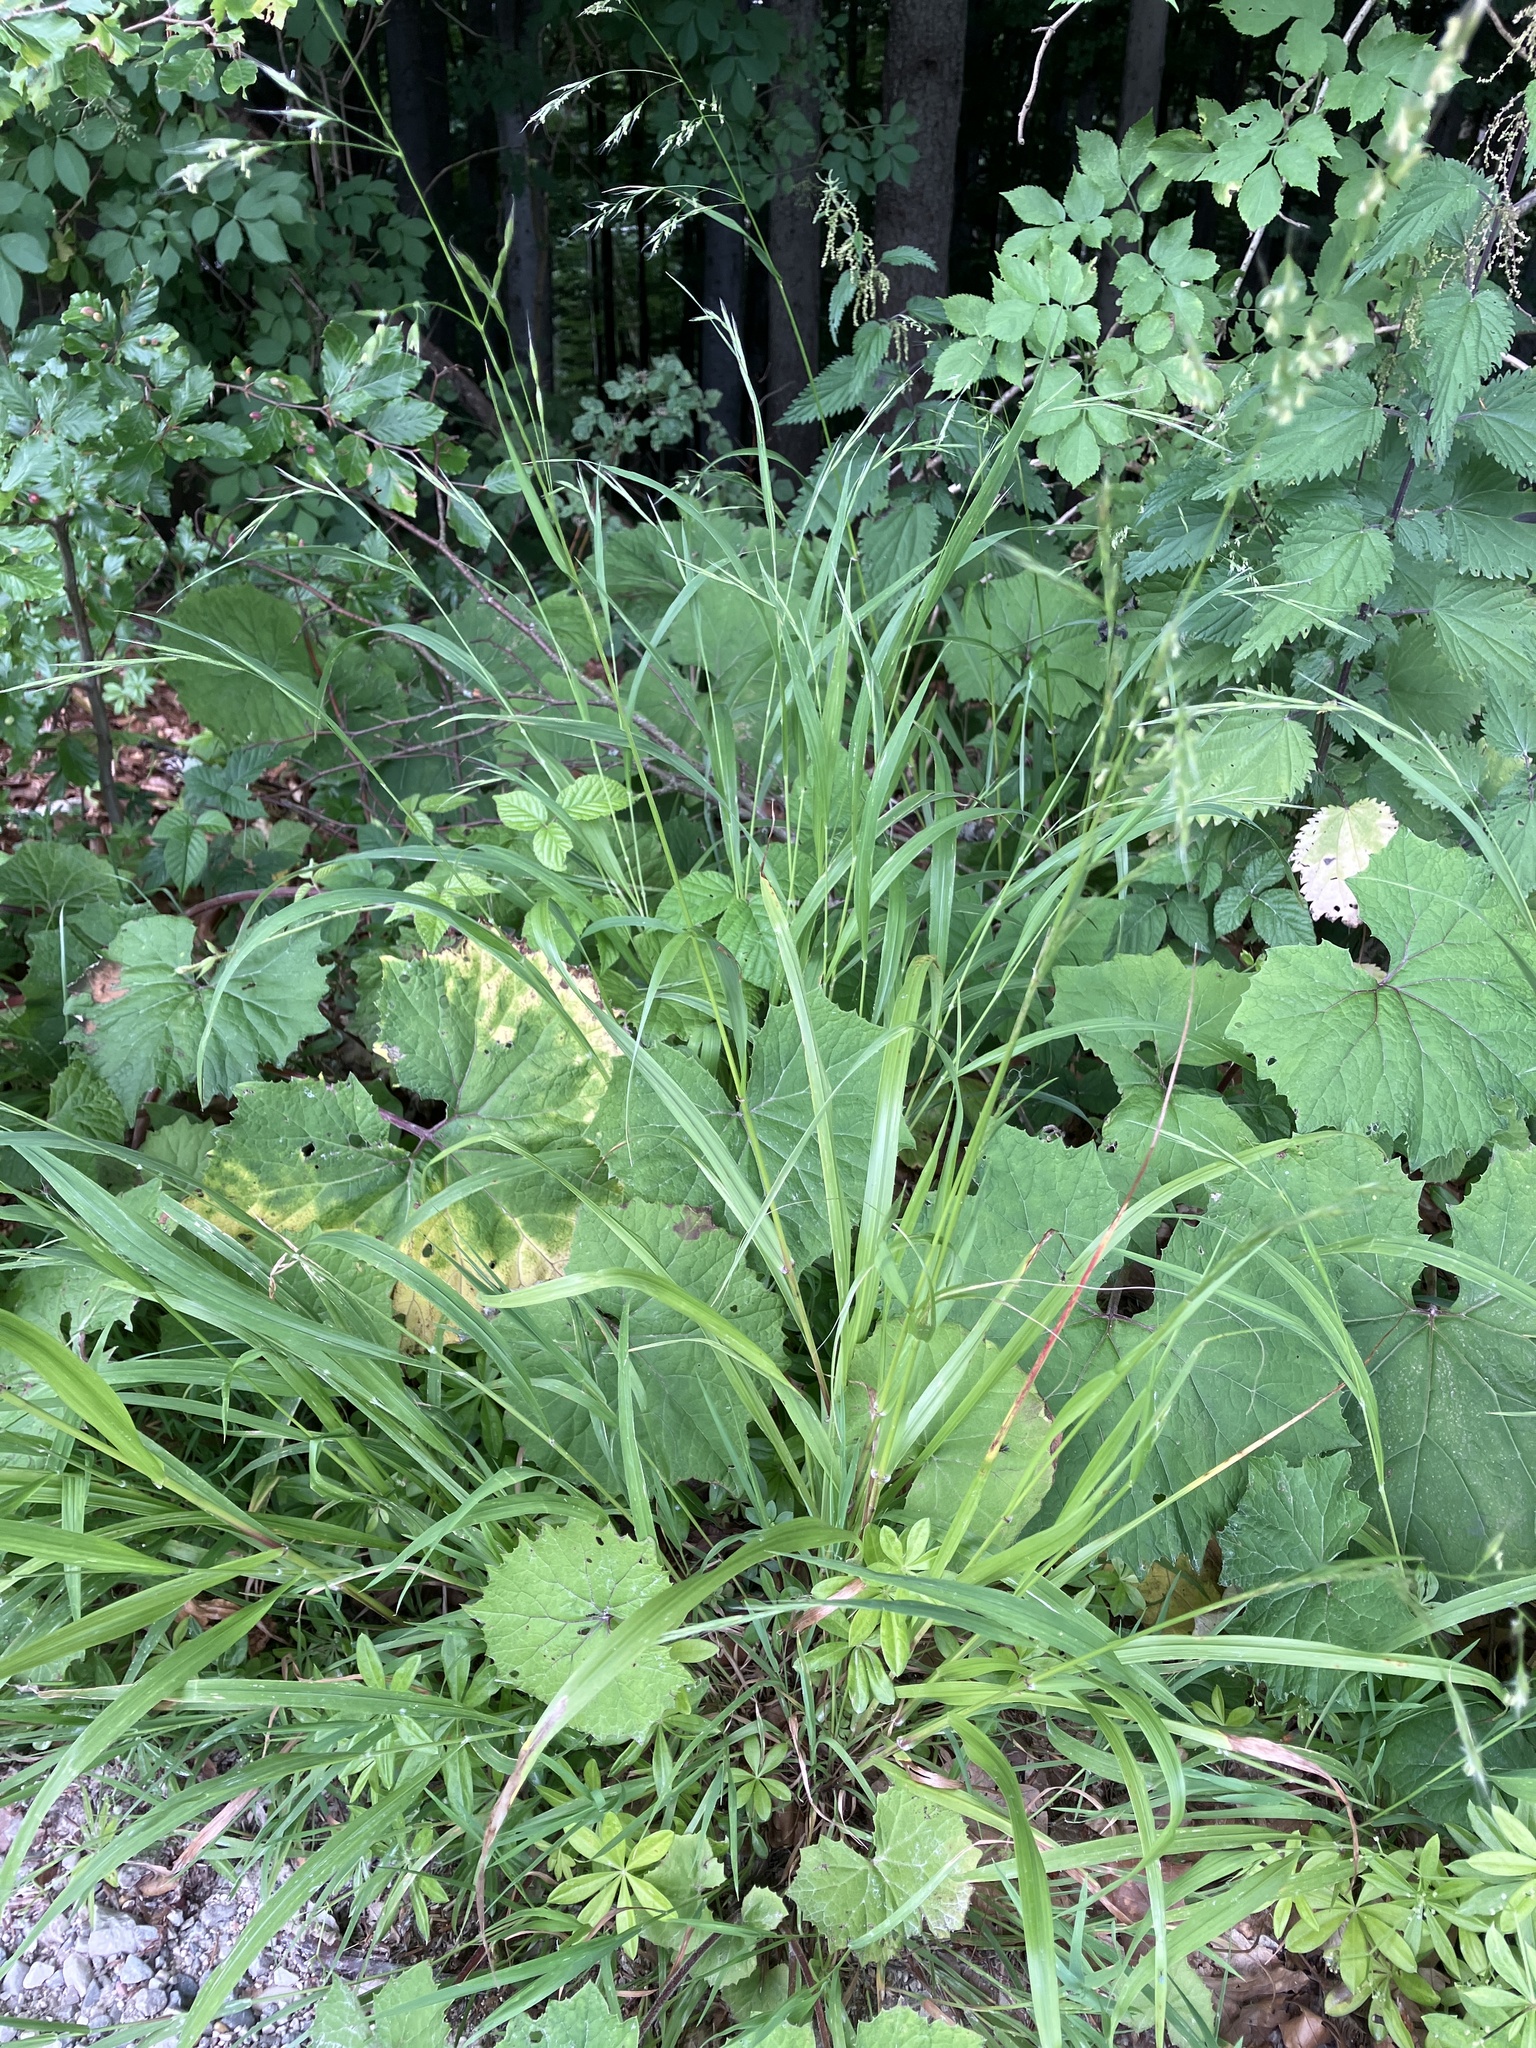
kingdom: Plantae
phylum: Tracheophyta
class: Liliopsida
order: Poales
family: Poaceae
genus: Lolium
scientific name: Lolium giganteum
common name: Giant fescue
